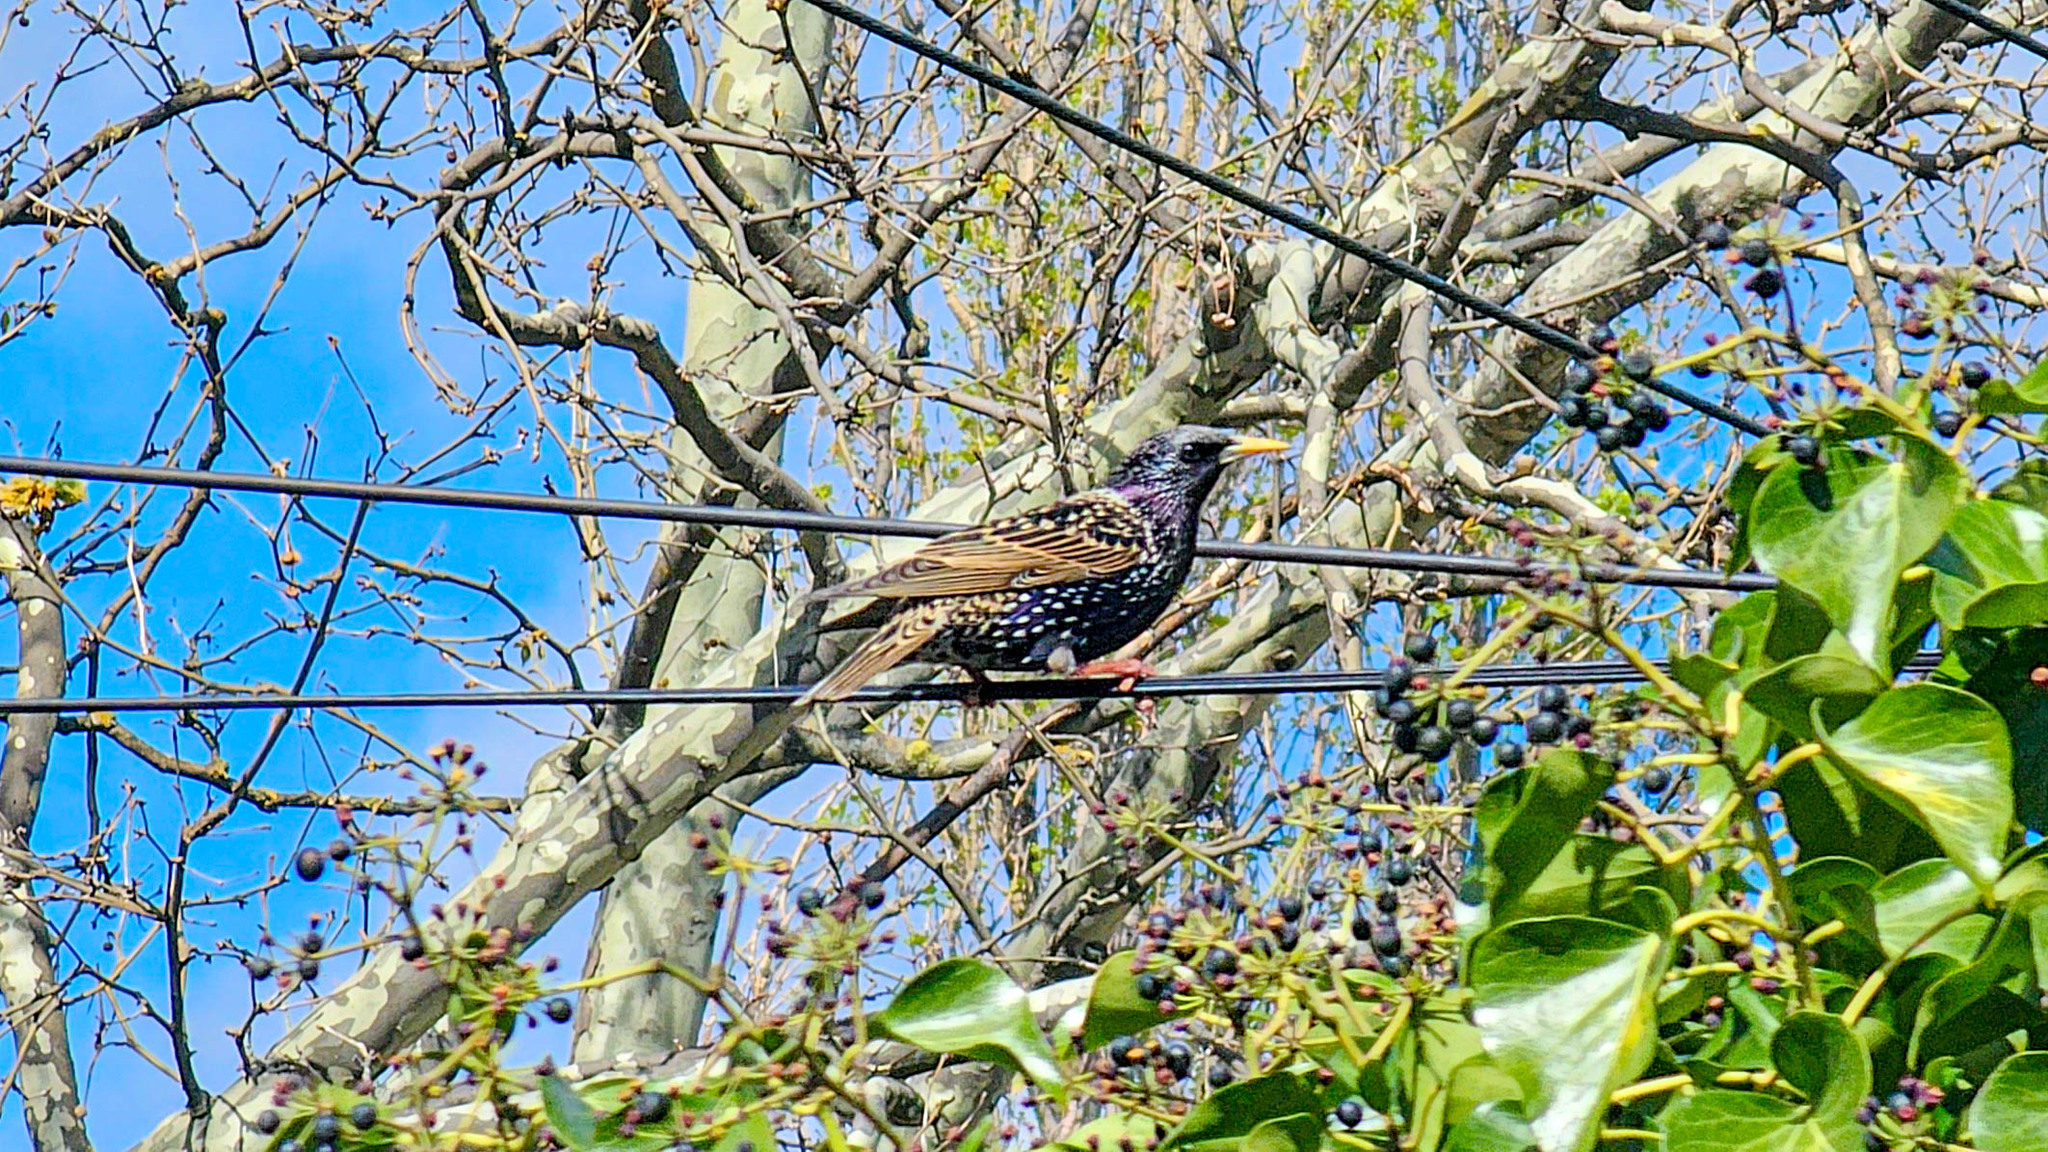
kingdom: Animalia
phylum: Chordata
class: Aves
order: Passeriformes
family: Sturnidae
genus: Sturnus
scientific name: Sturnus vulgaris
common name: Common starling
